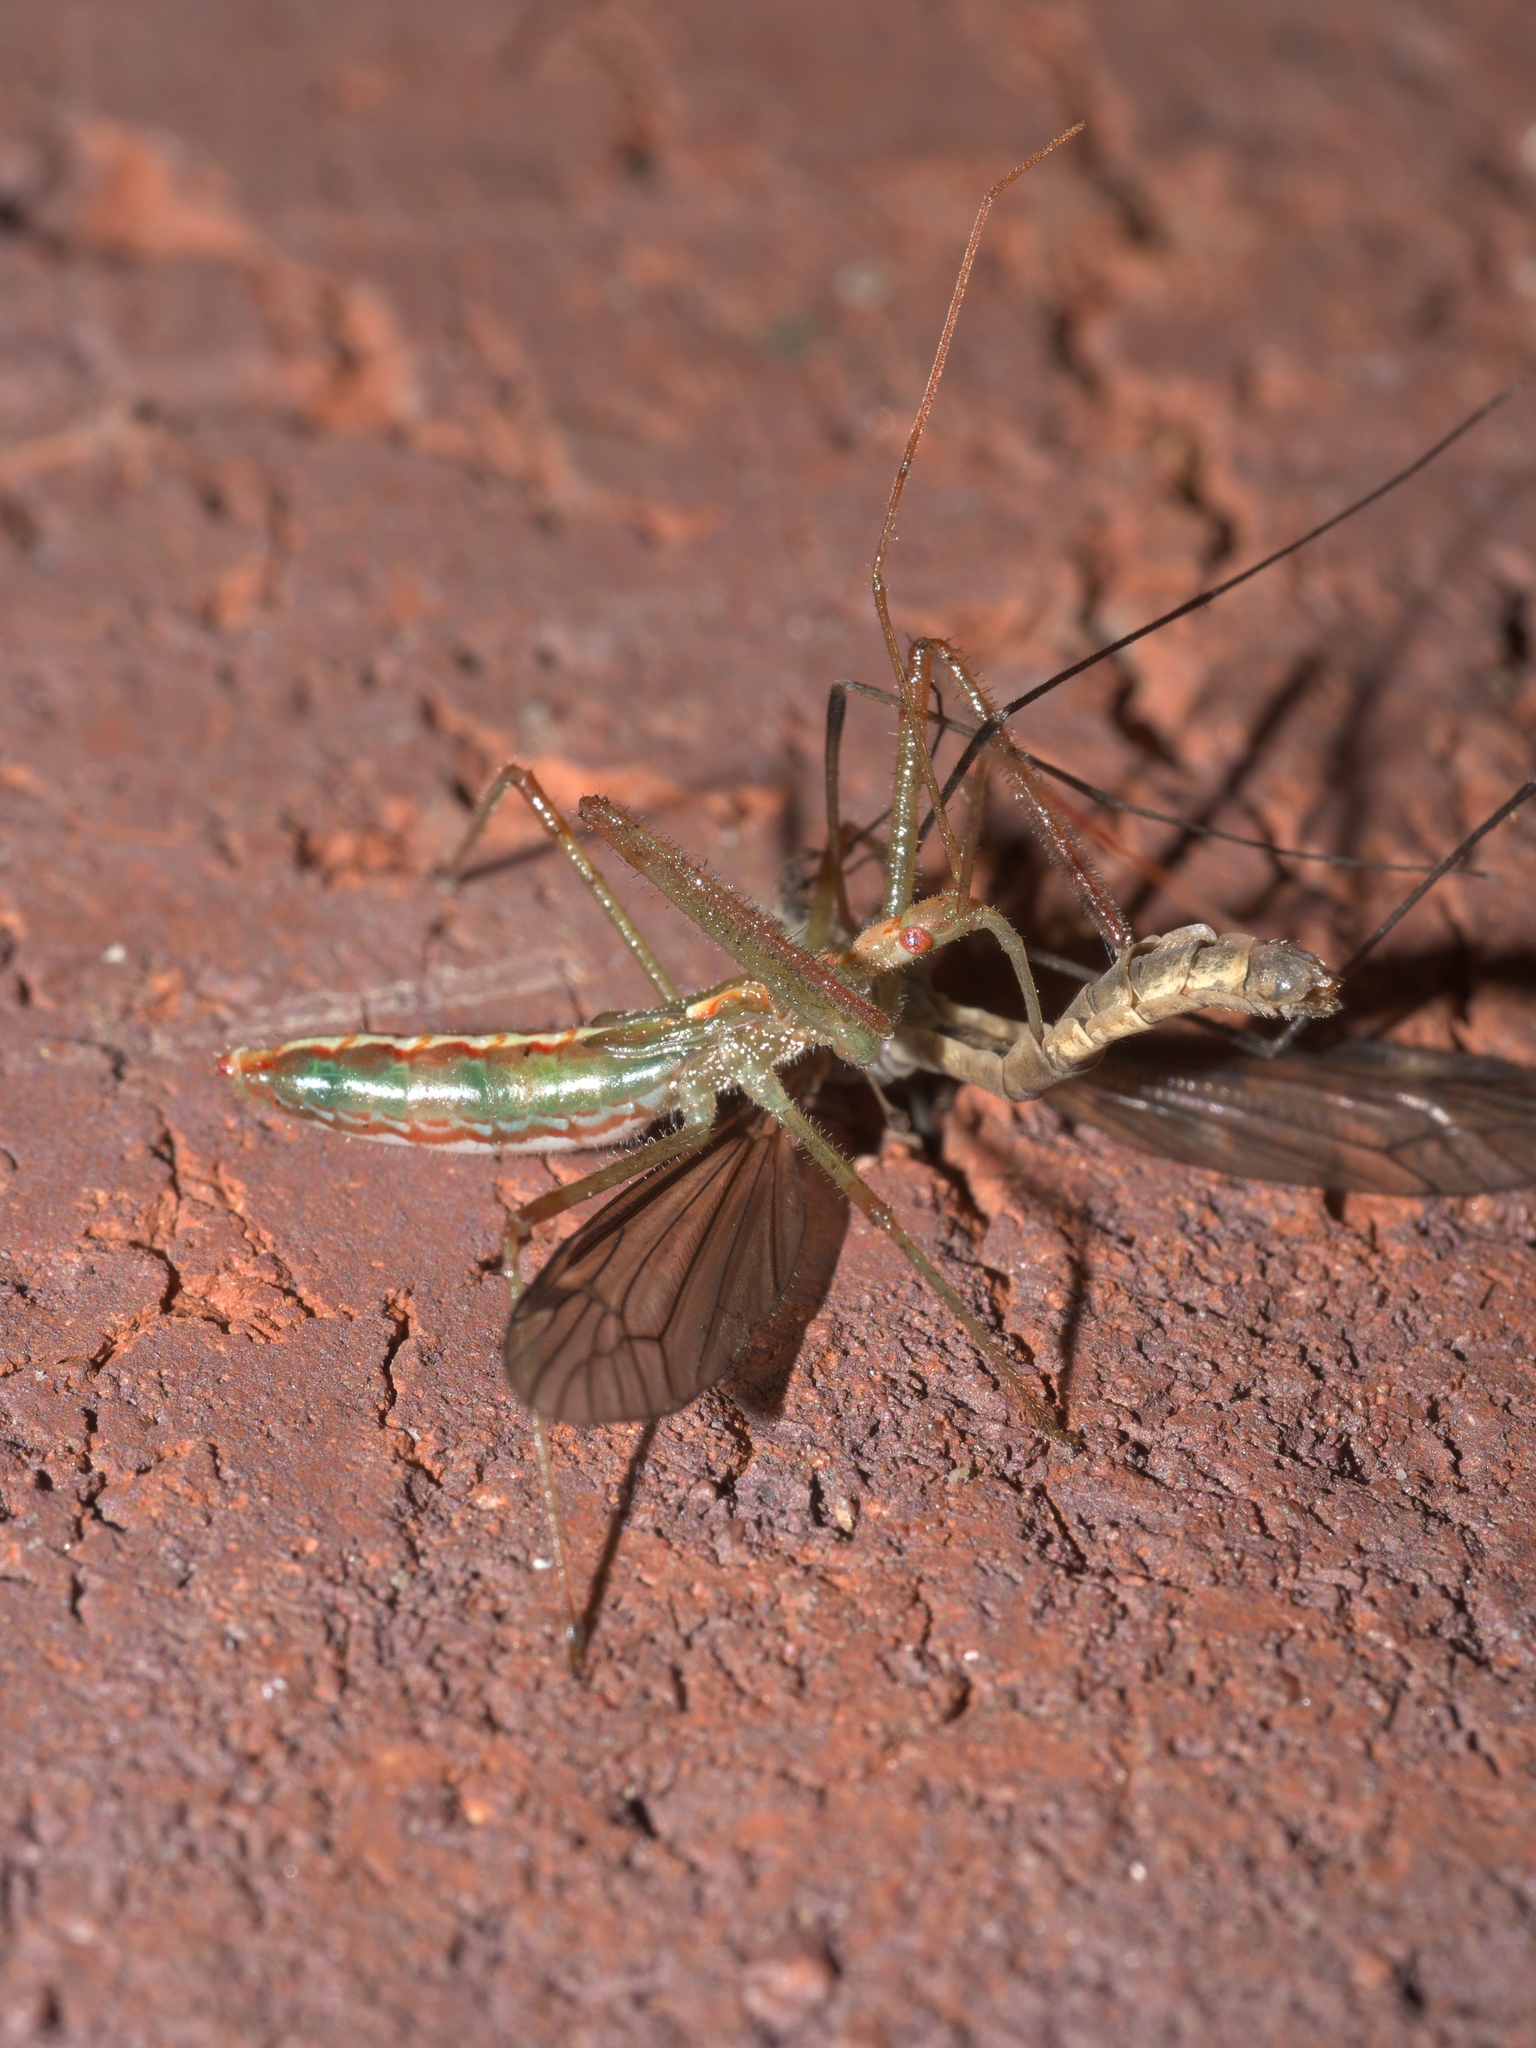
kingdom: Animalia
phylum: Arthropoda
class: Insecta
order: Hemiptera
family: Reduviidae
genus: Zelus
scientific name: Zelus luridus
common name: Pale green assassin bug
